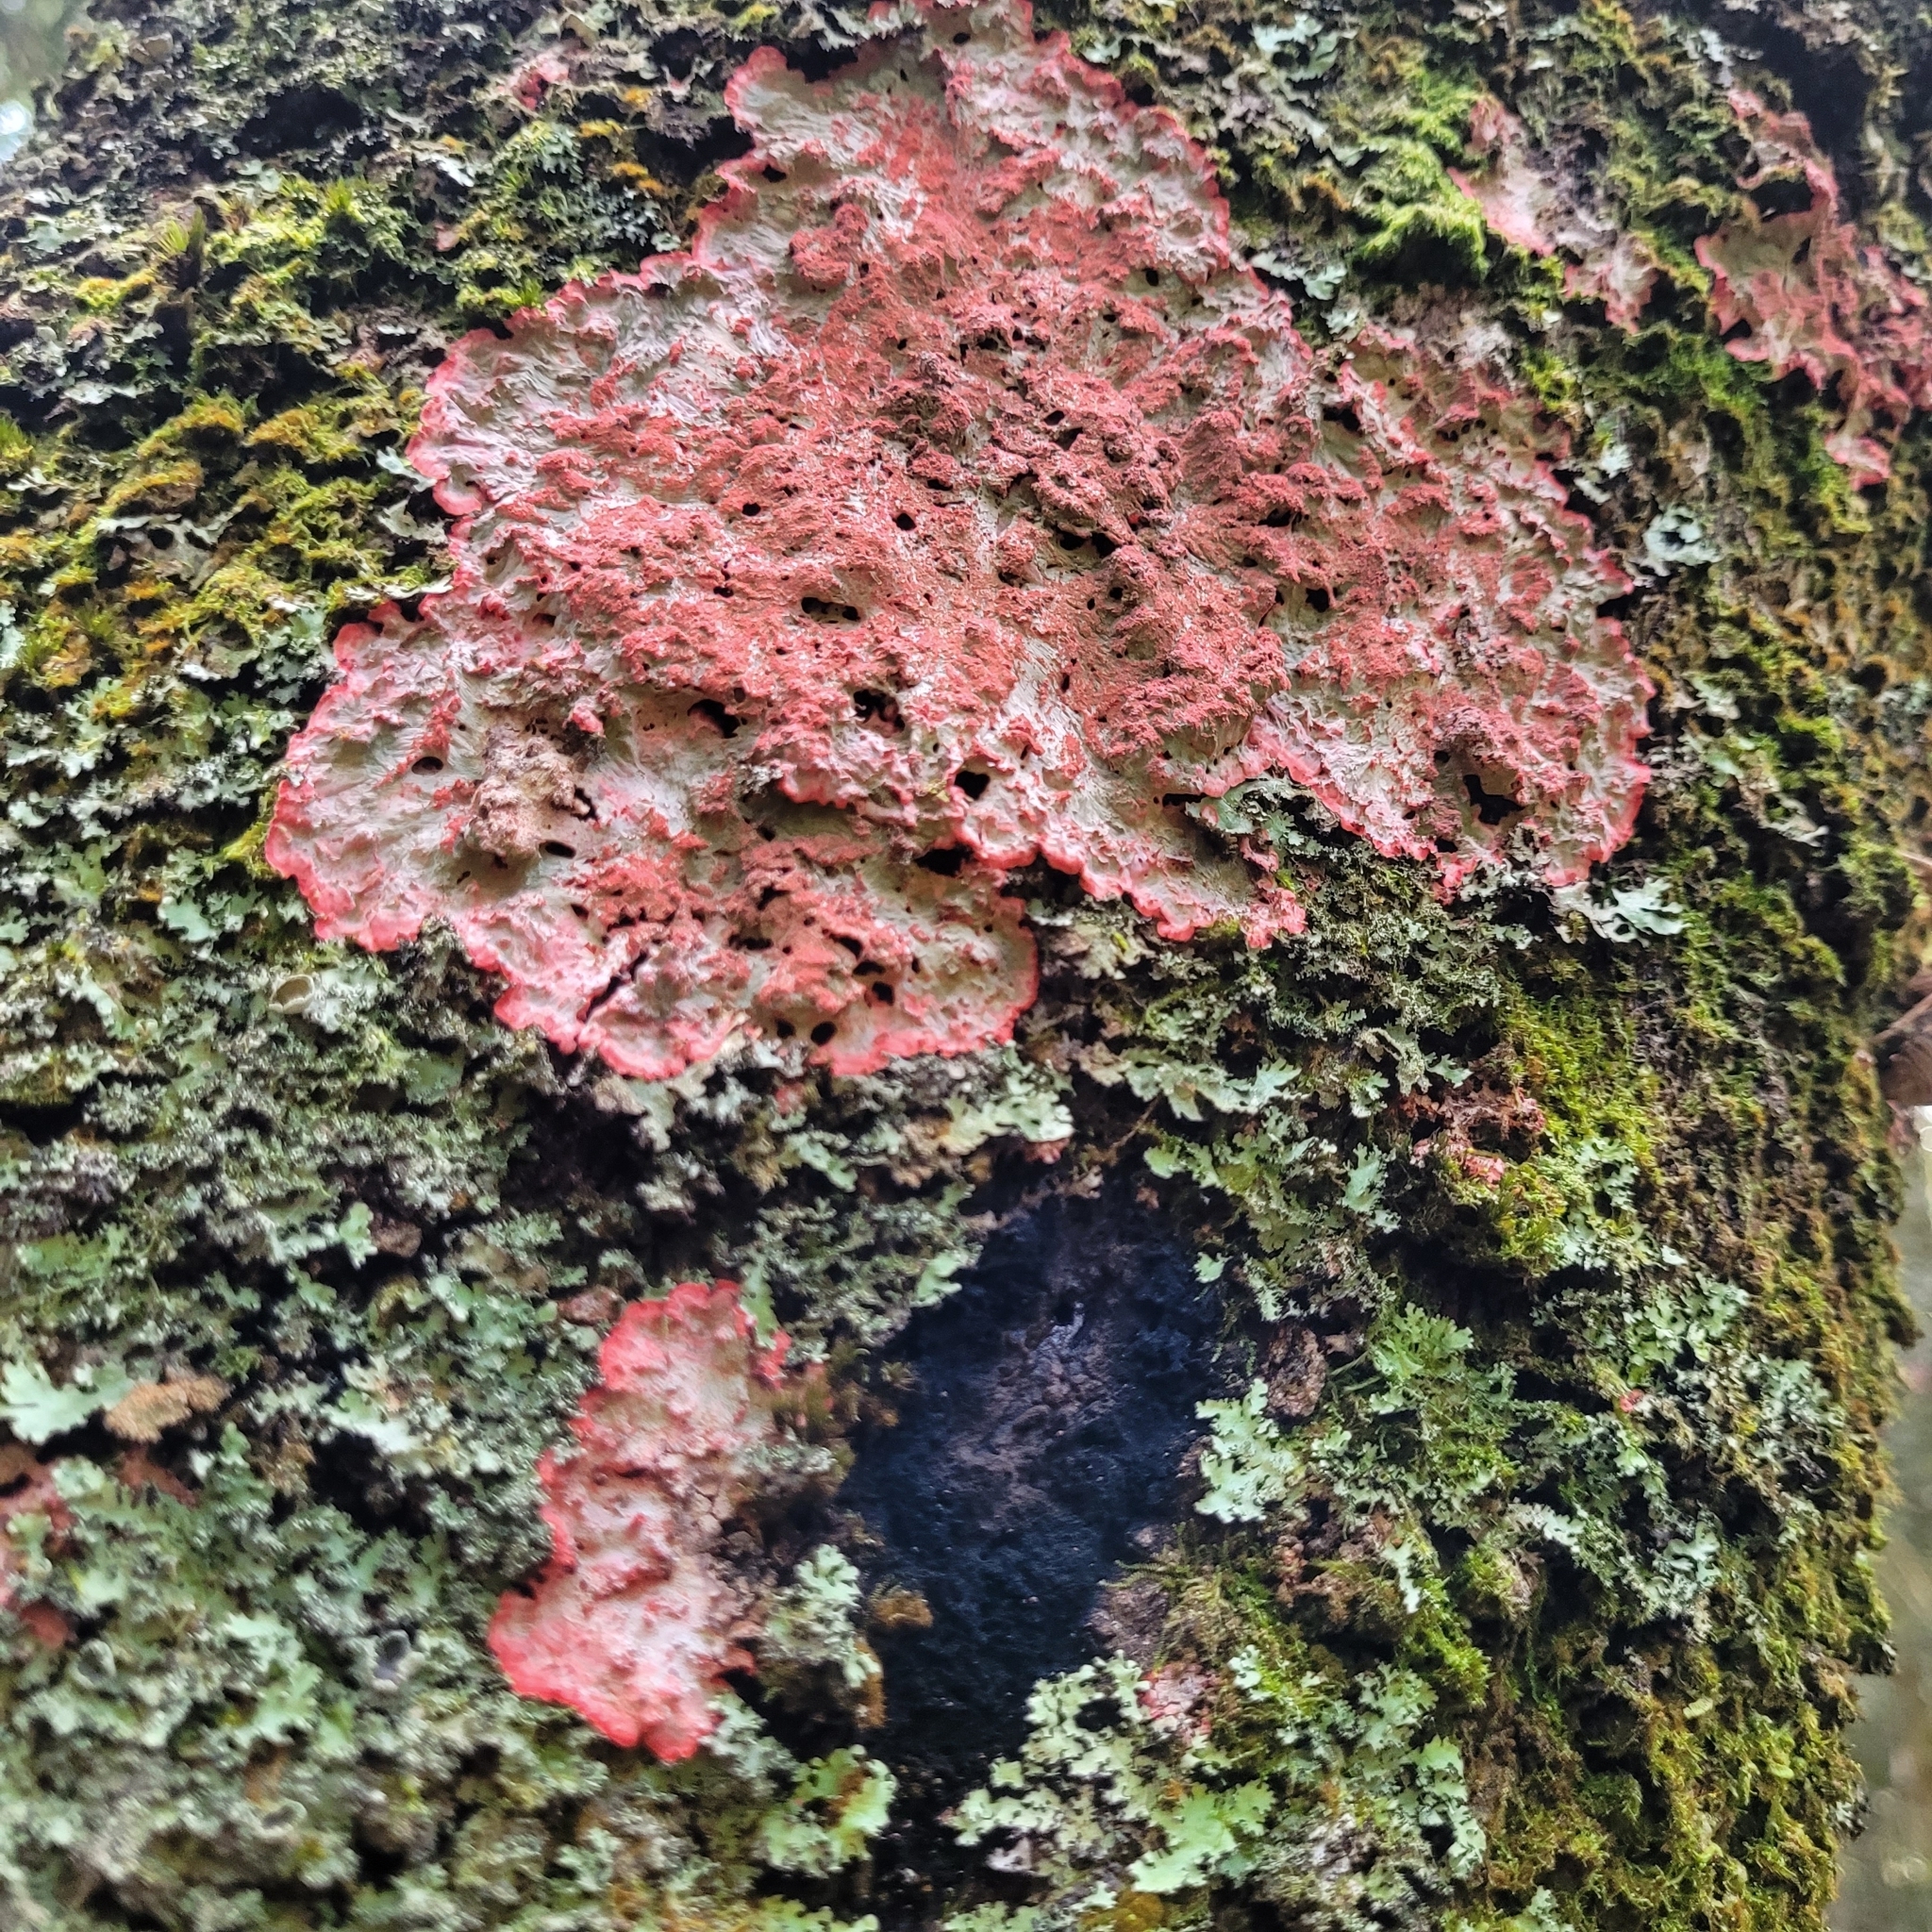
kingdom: Fungi
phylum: Ascomycota
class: Arthoniomycetes
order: Arthoniales
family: Arthoniaceae
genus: Herpothallon
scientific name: Herpothallon rubrocinctum
